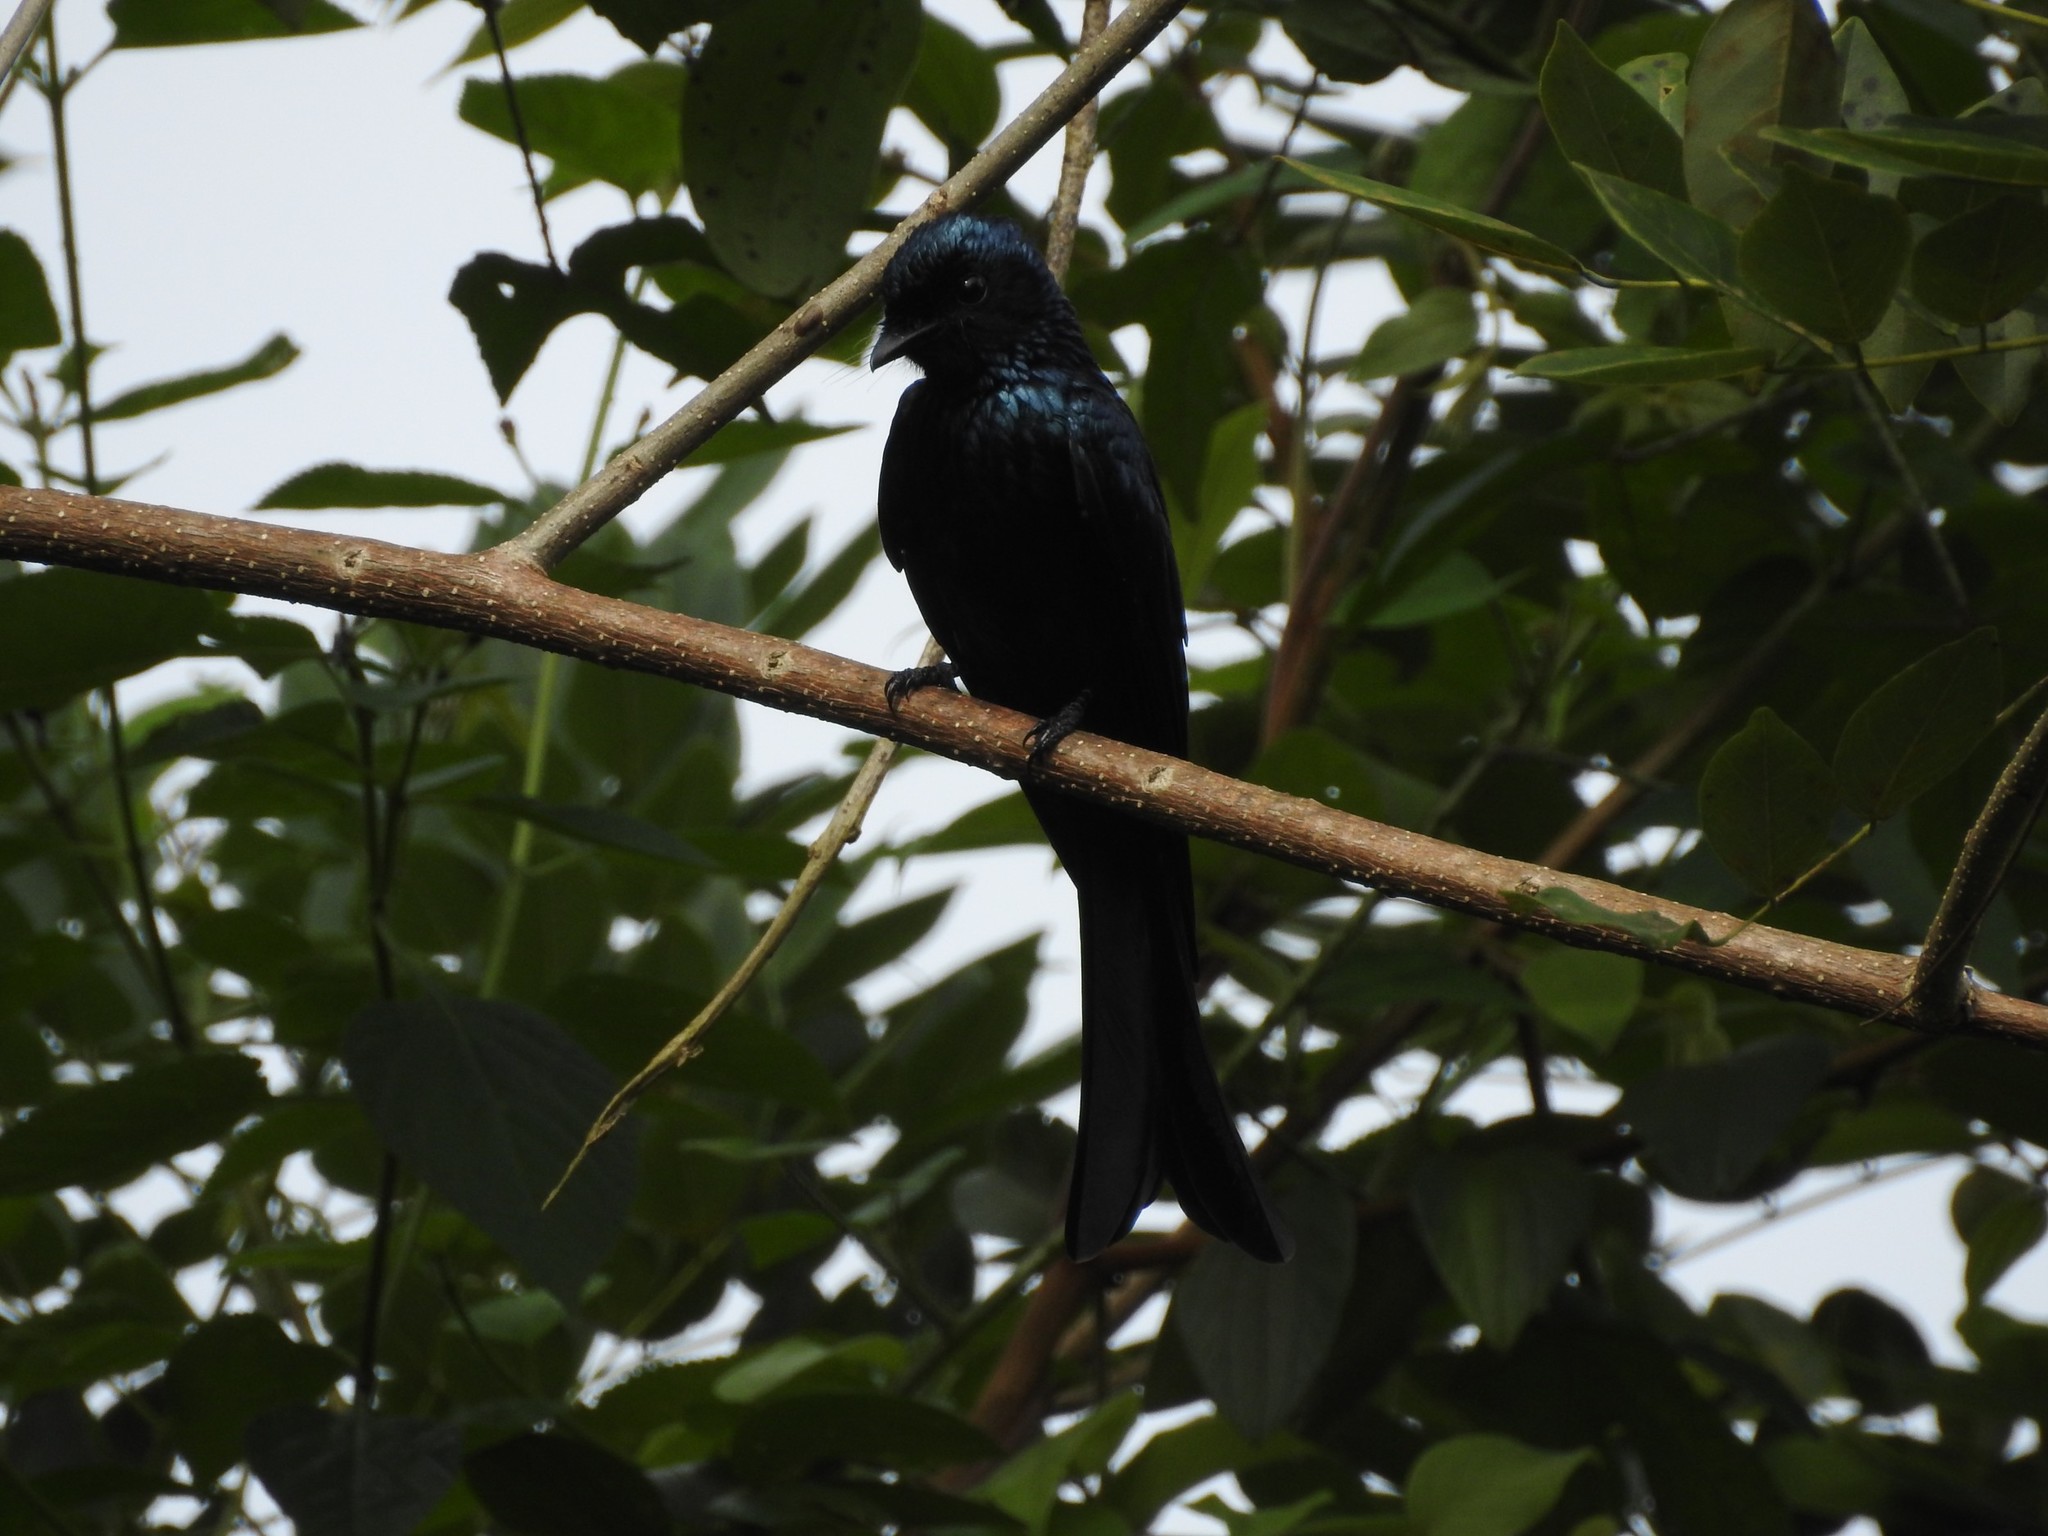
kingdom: Animalia
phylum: Chordata
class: Aves
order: Passeriformes
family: Dicruridae
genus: Dicrurus
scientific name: Dicrurus aeneus
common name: Bronzed drongo
